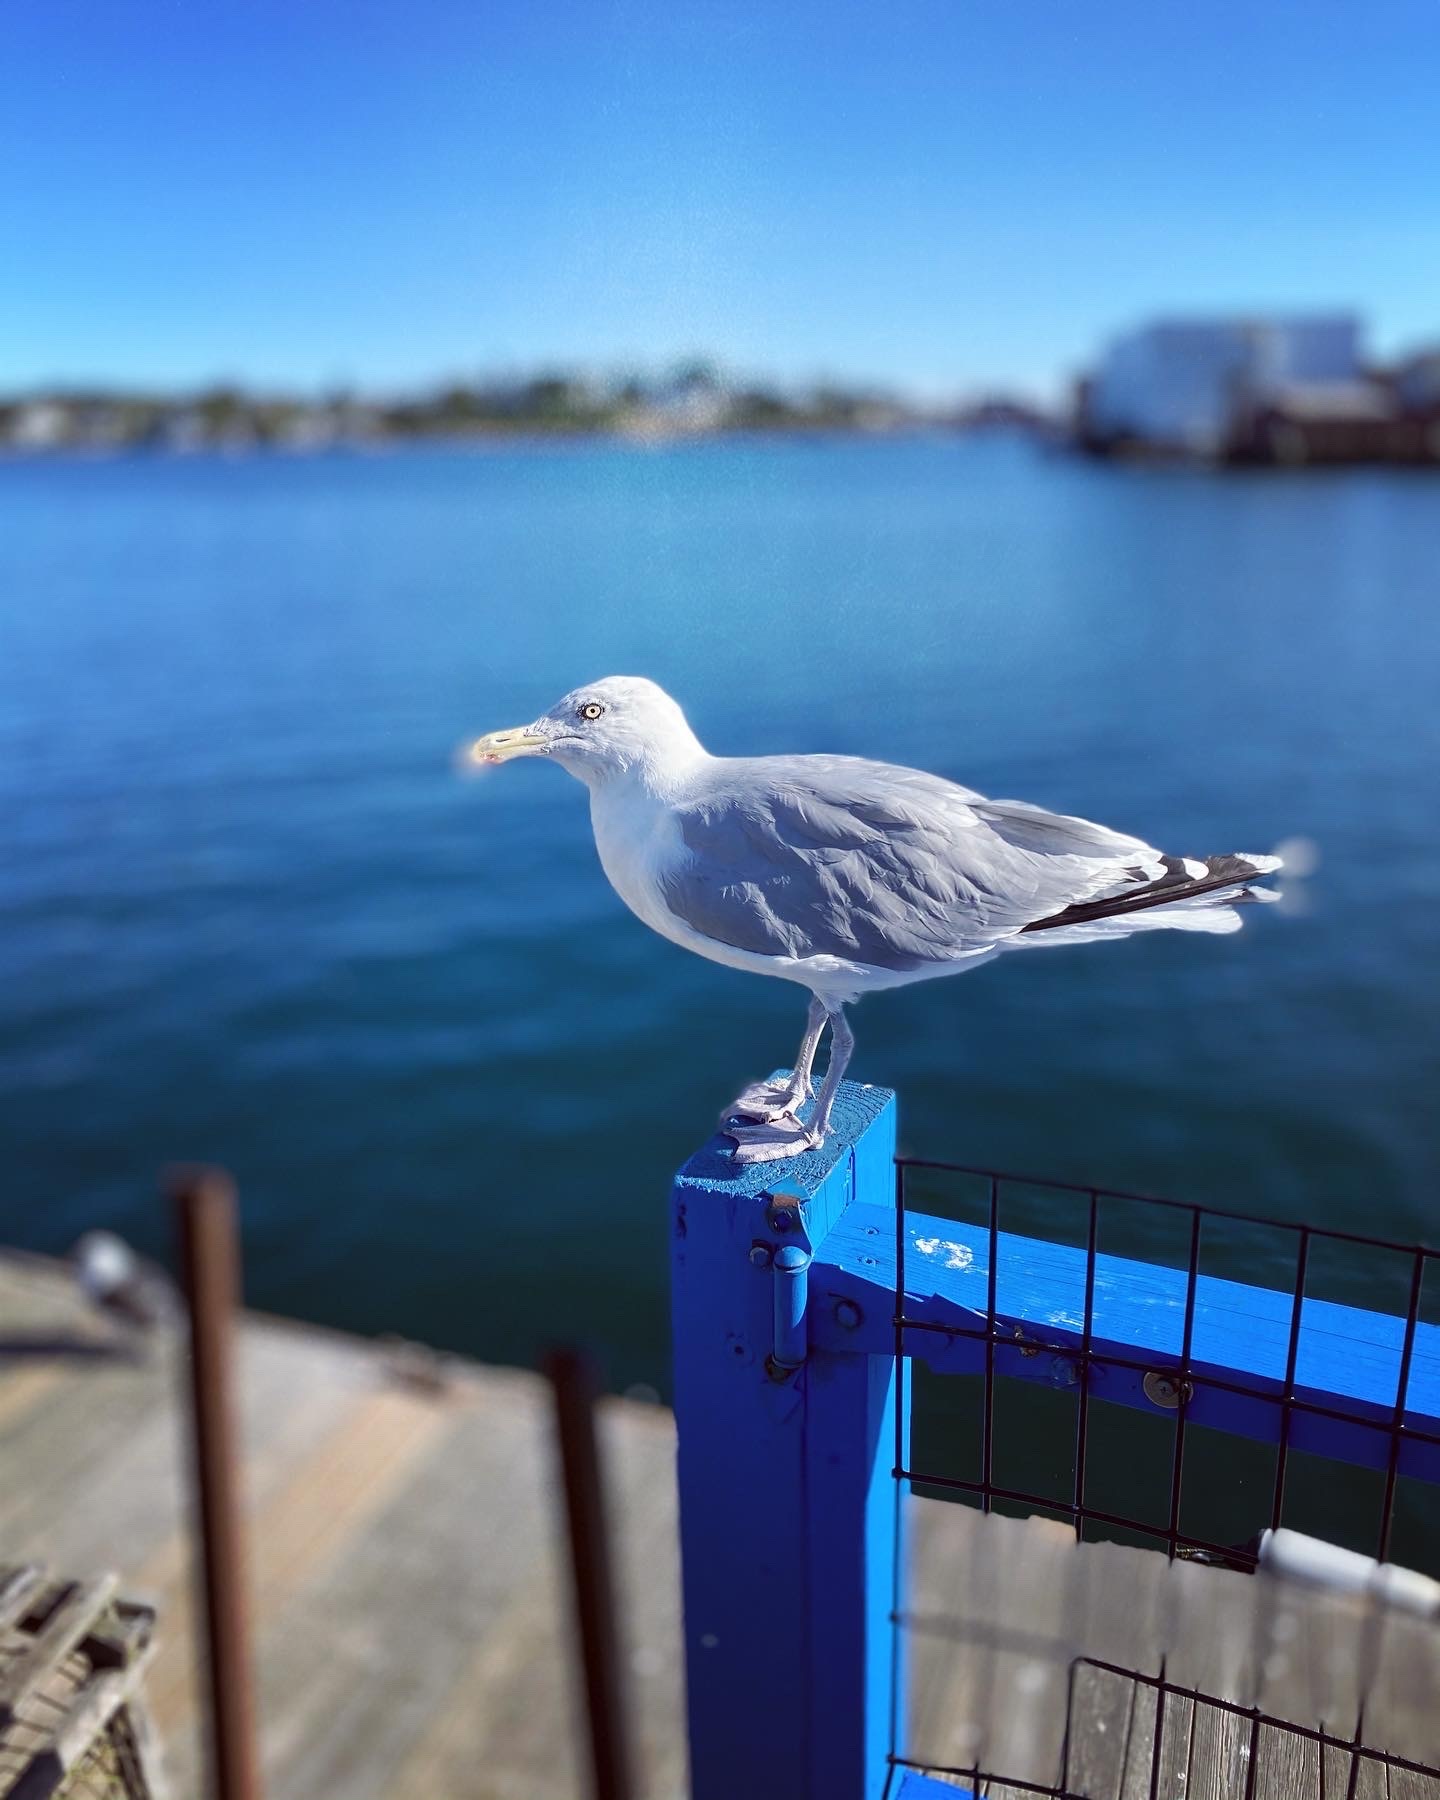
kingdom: Animalia
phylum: Chordata
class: Aves
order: Charadriiformes
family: Laridae
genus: Larus
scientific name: Larus argentatus
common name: Herring gull
